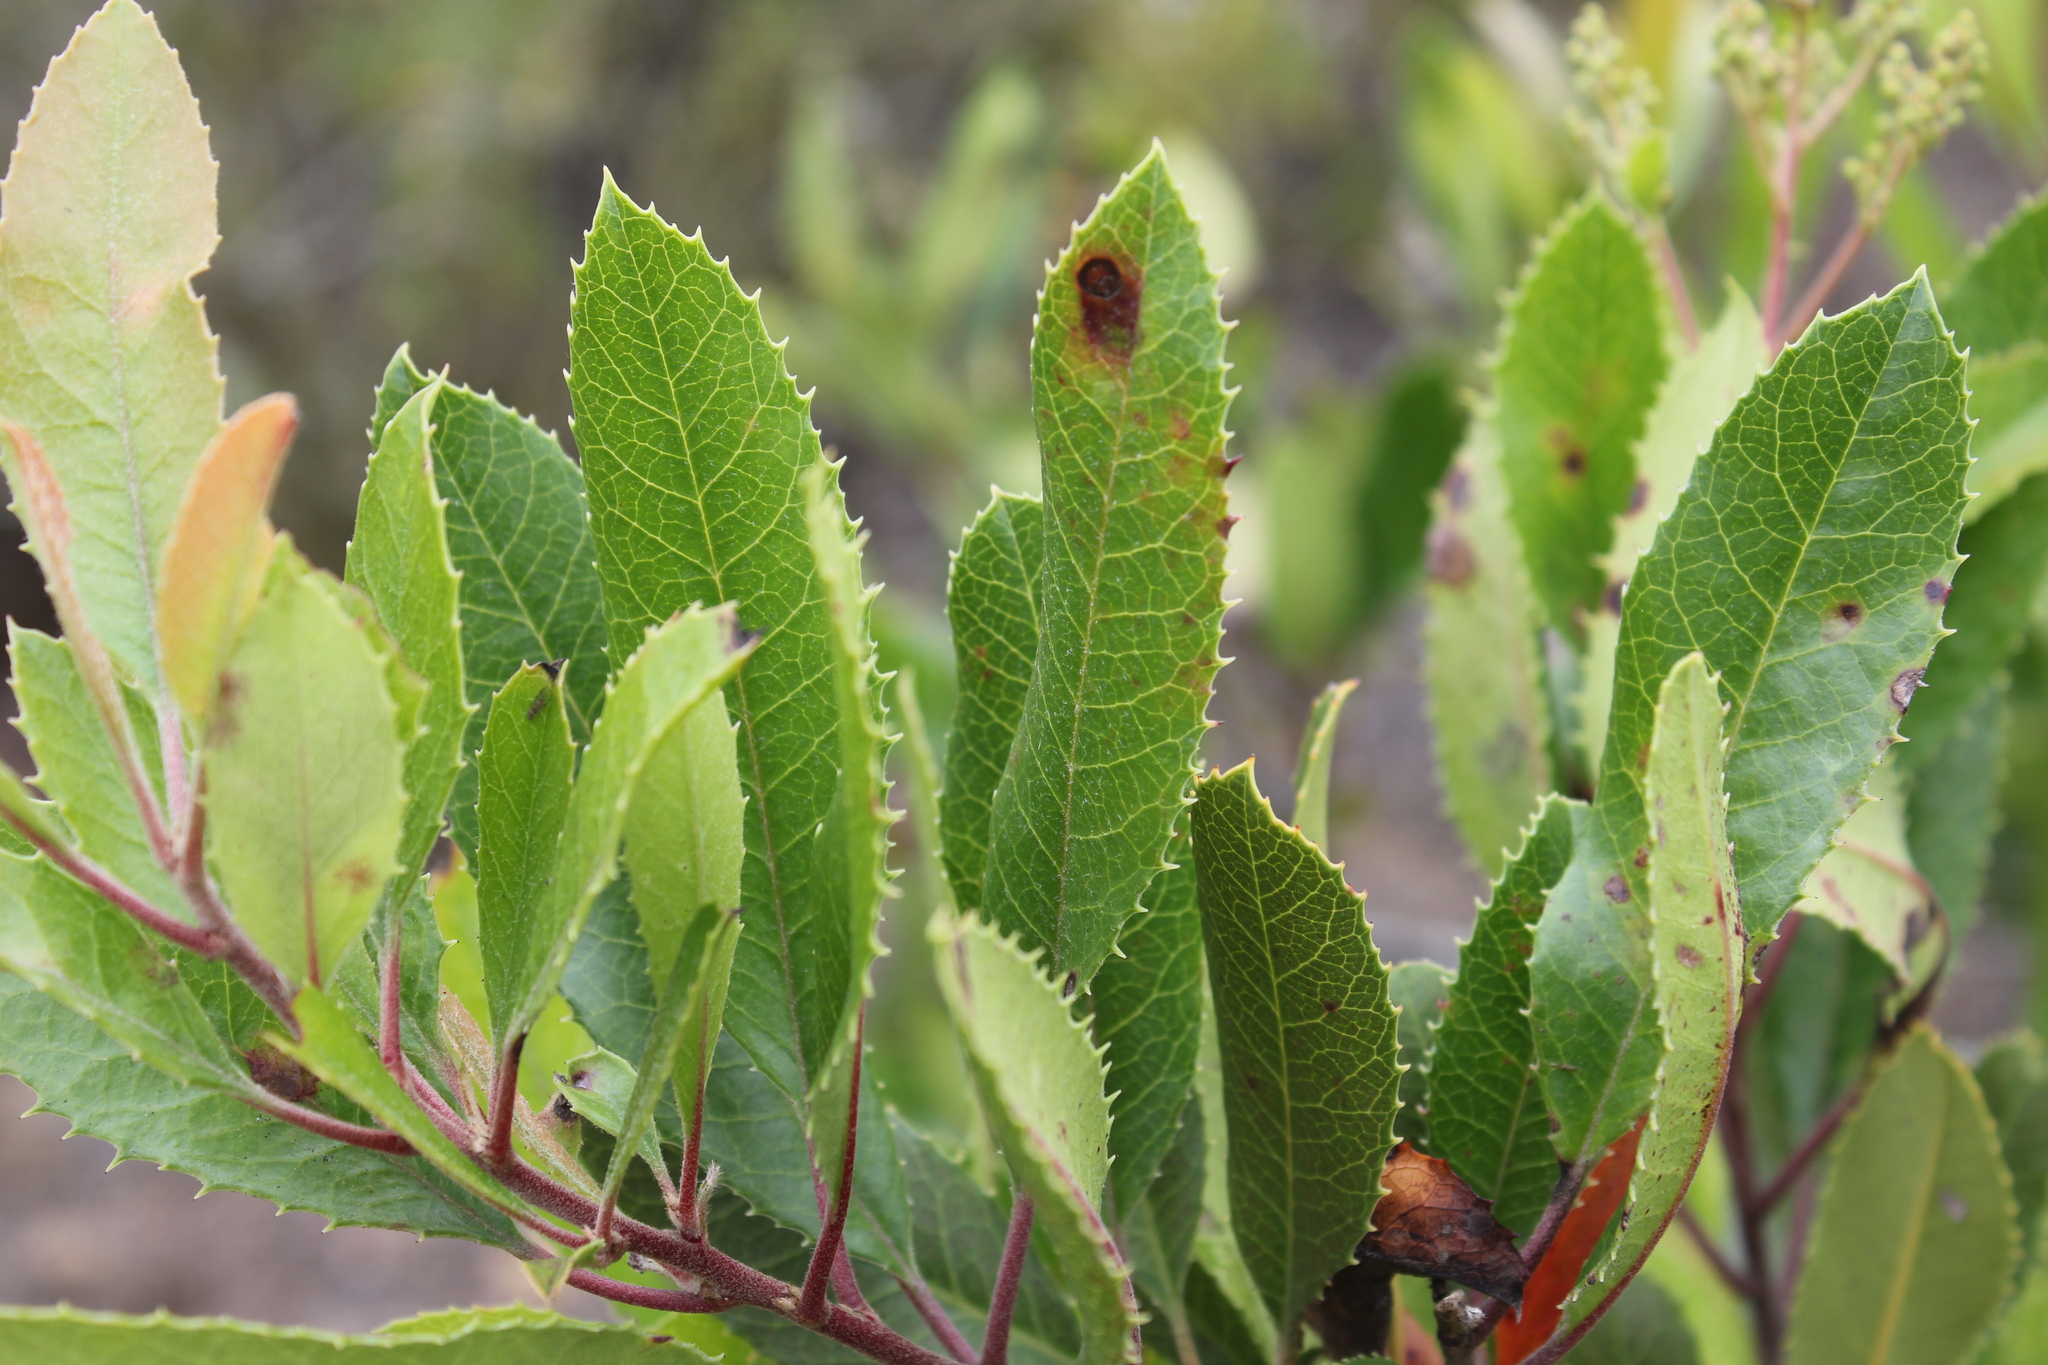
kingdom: Plantae
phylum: Tracheophyta
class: Magnoliopsida
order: Rosales
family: Rosaceae
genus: Heteromeles
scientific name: Heteromeles arbutifolia
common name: California-holly
